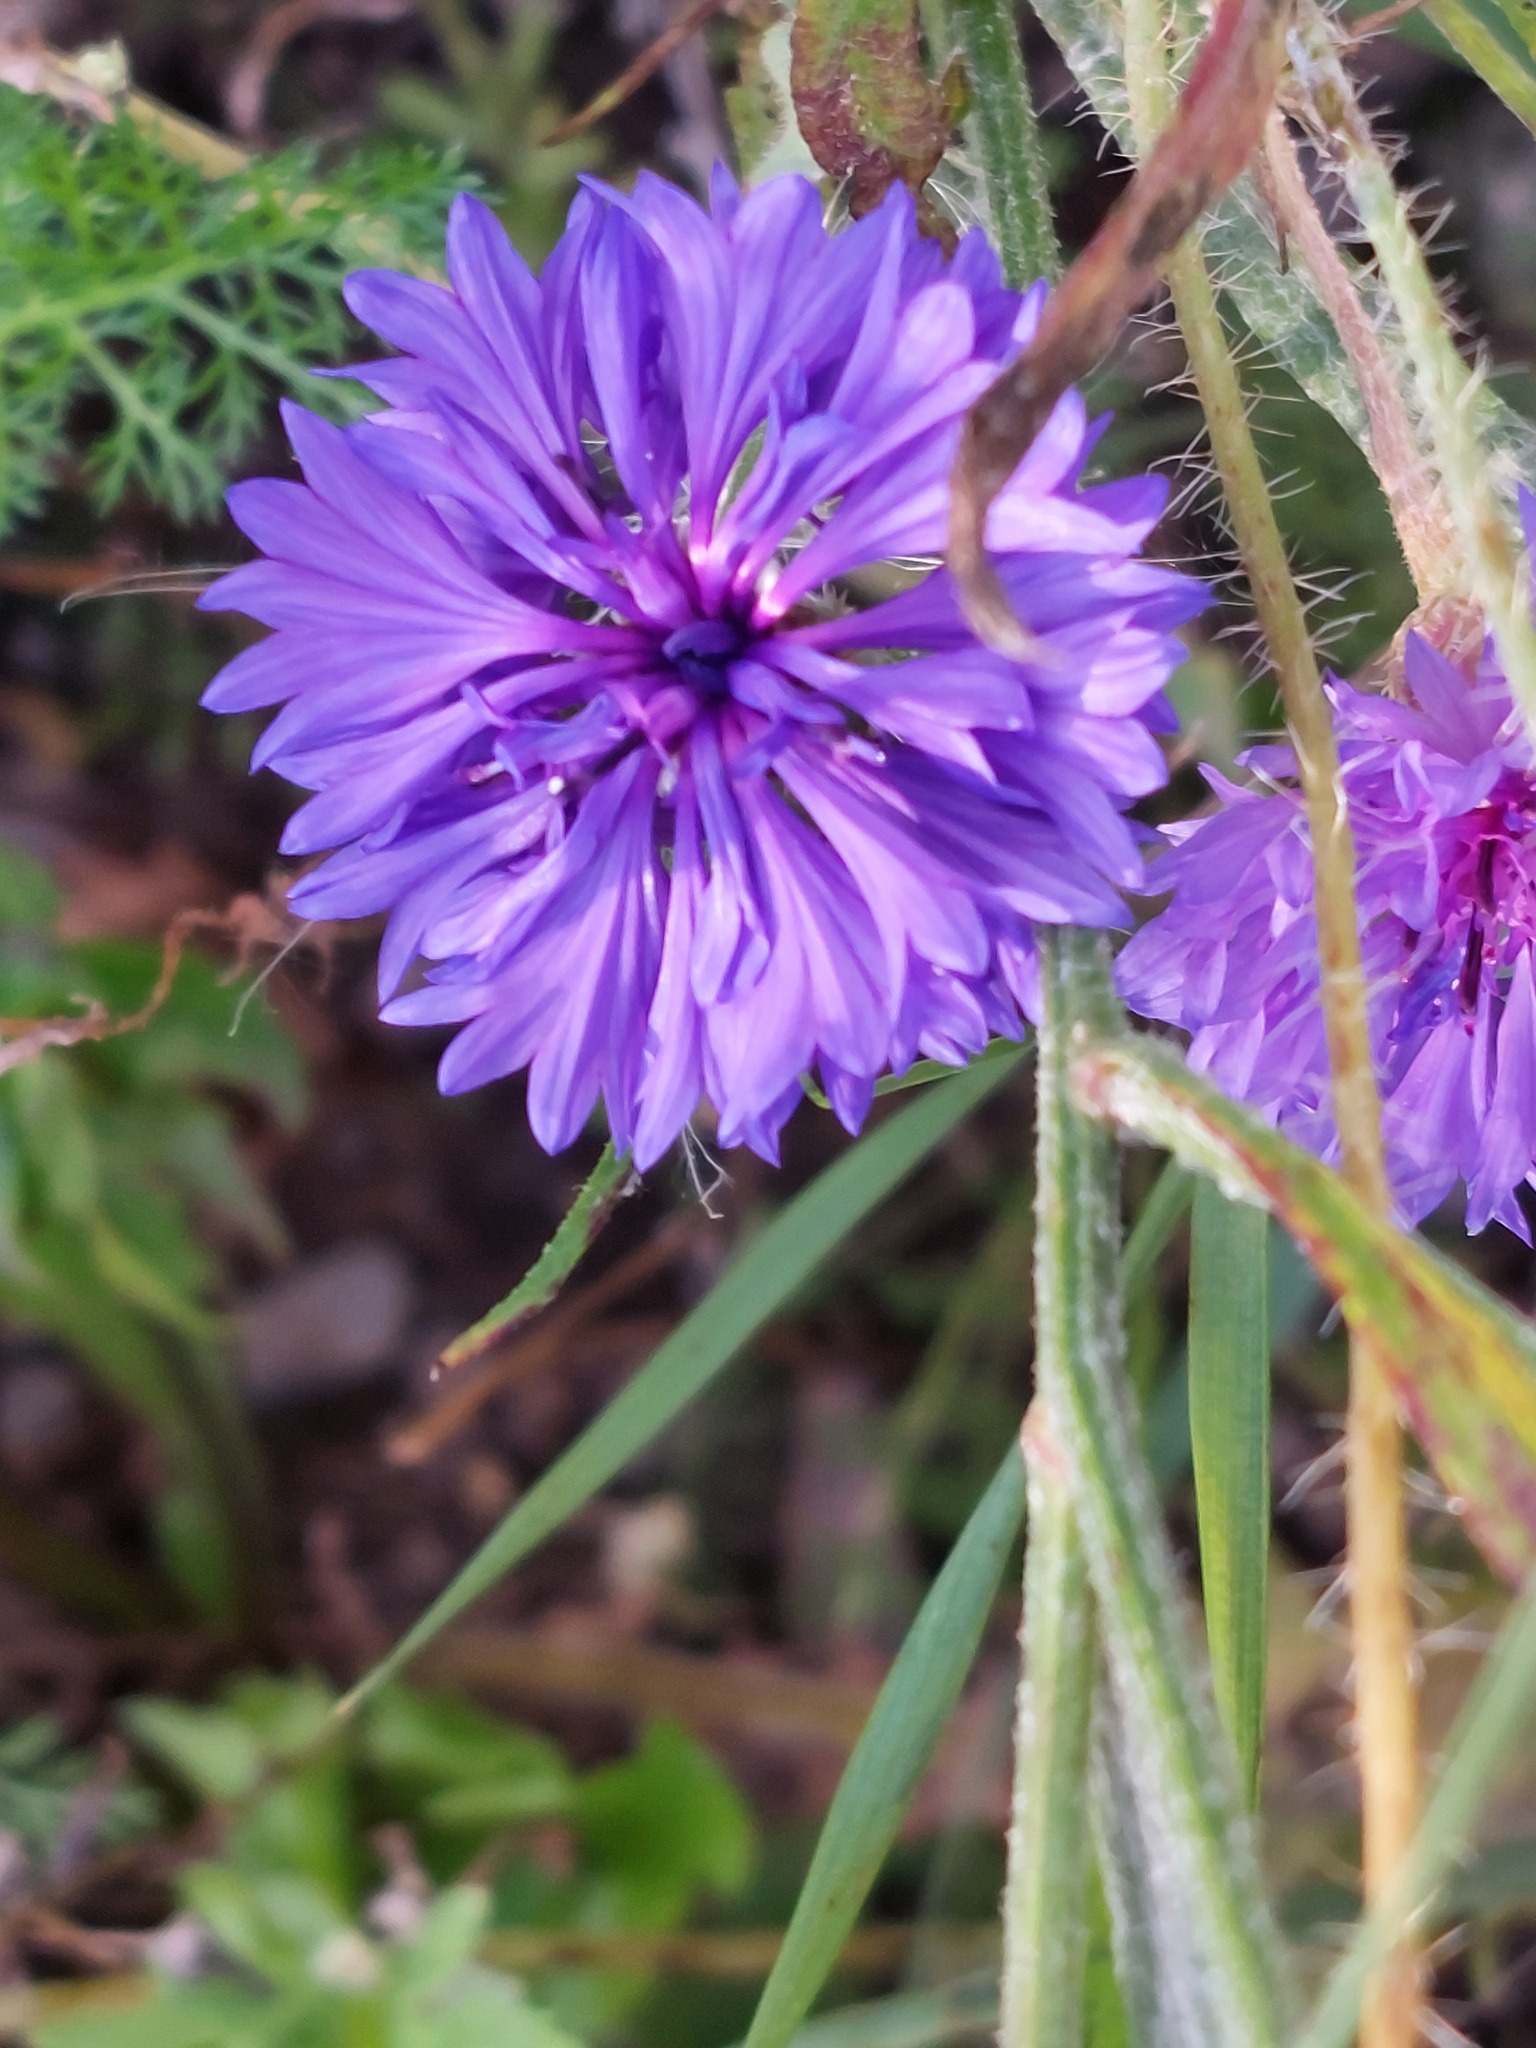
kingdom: Plantae
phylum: Tracheophyta
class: Magnoliopsida
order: Asterales
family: Asteraceae
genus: Centaurea
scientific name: Centaurea cyanus
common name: Cornflower
